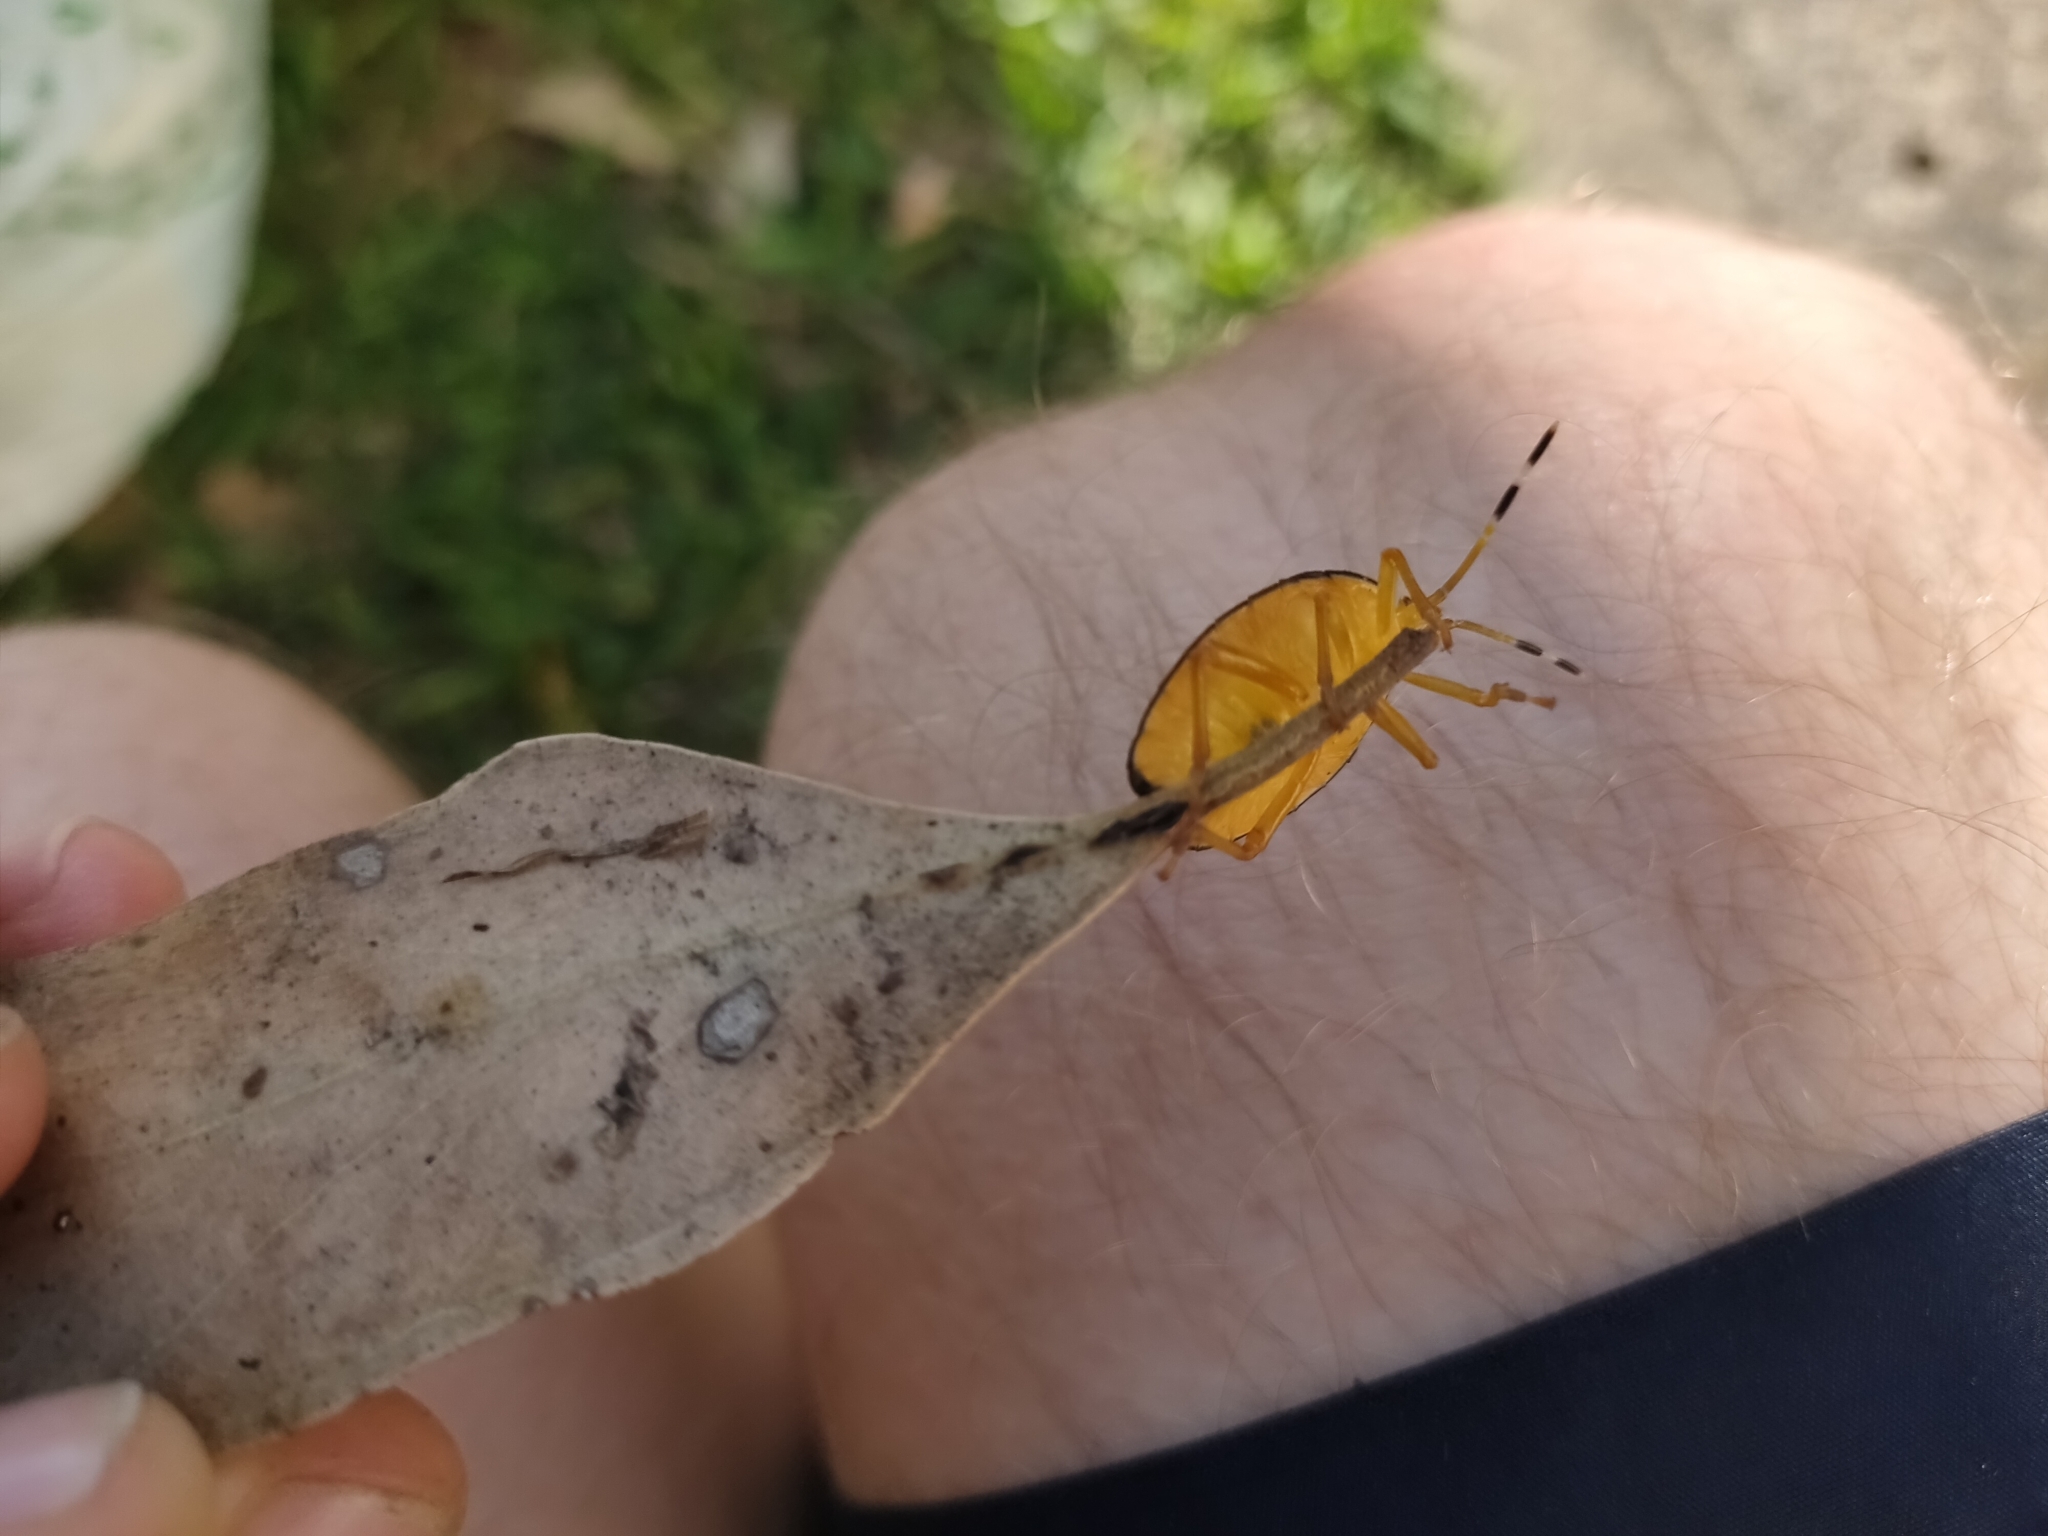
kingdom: Animalia
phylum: Arthropoda
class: Insecta
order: Hemiptera
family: Tessaratomidae
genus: Musgraveia
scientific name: Musgraveia sulciventris
